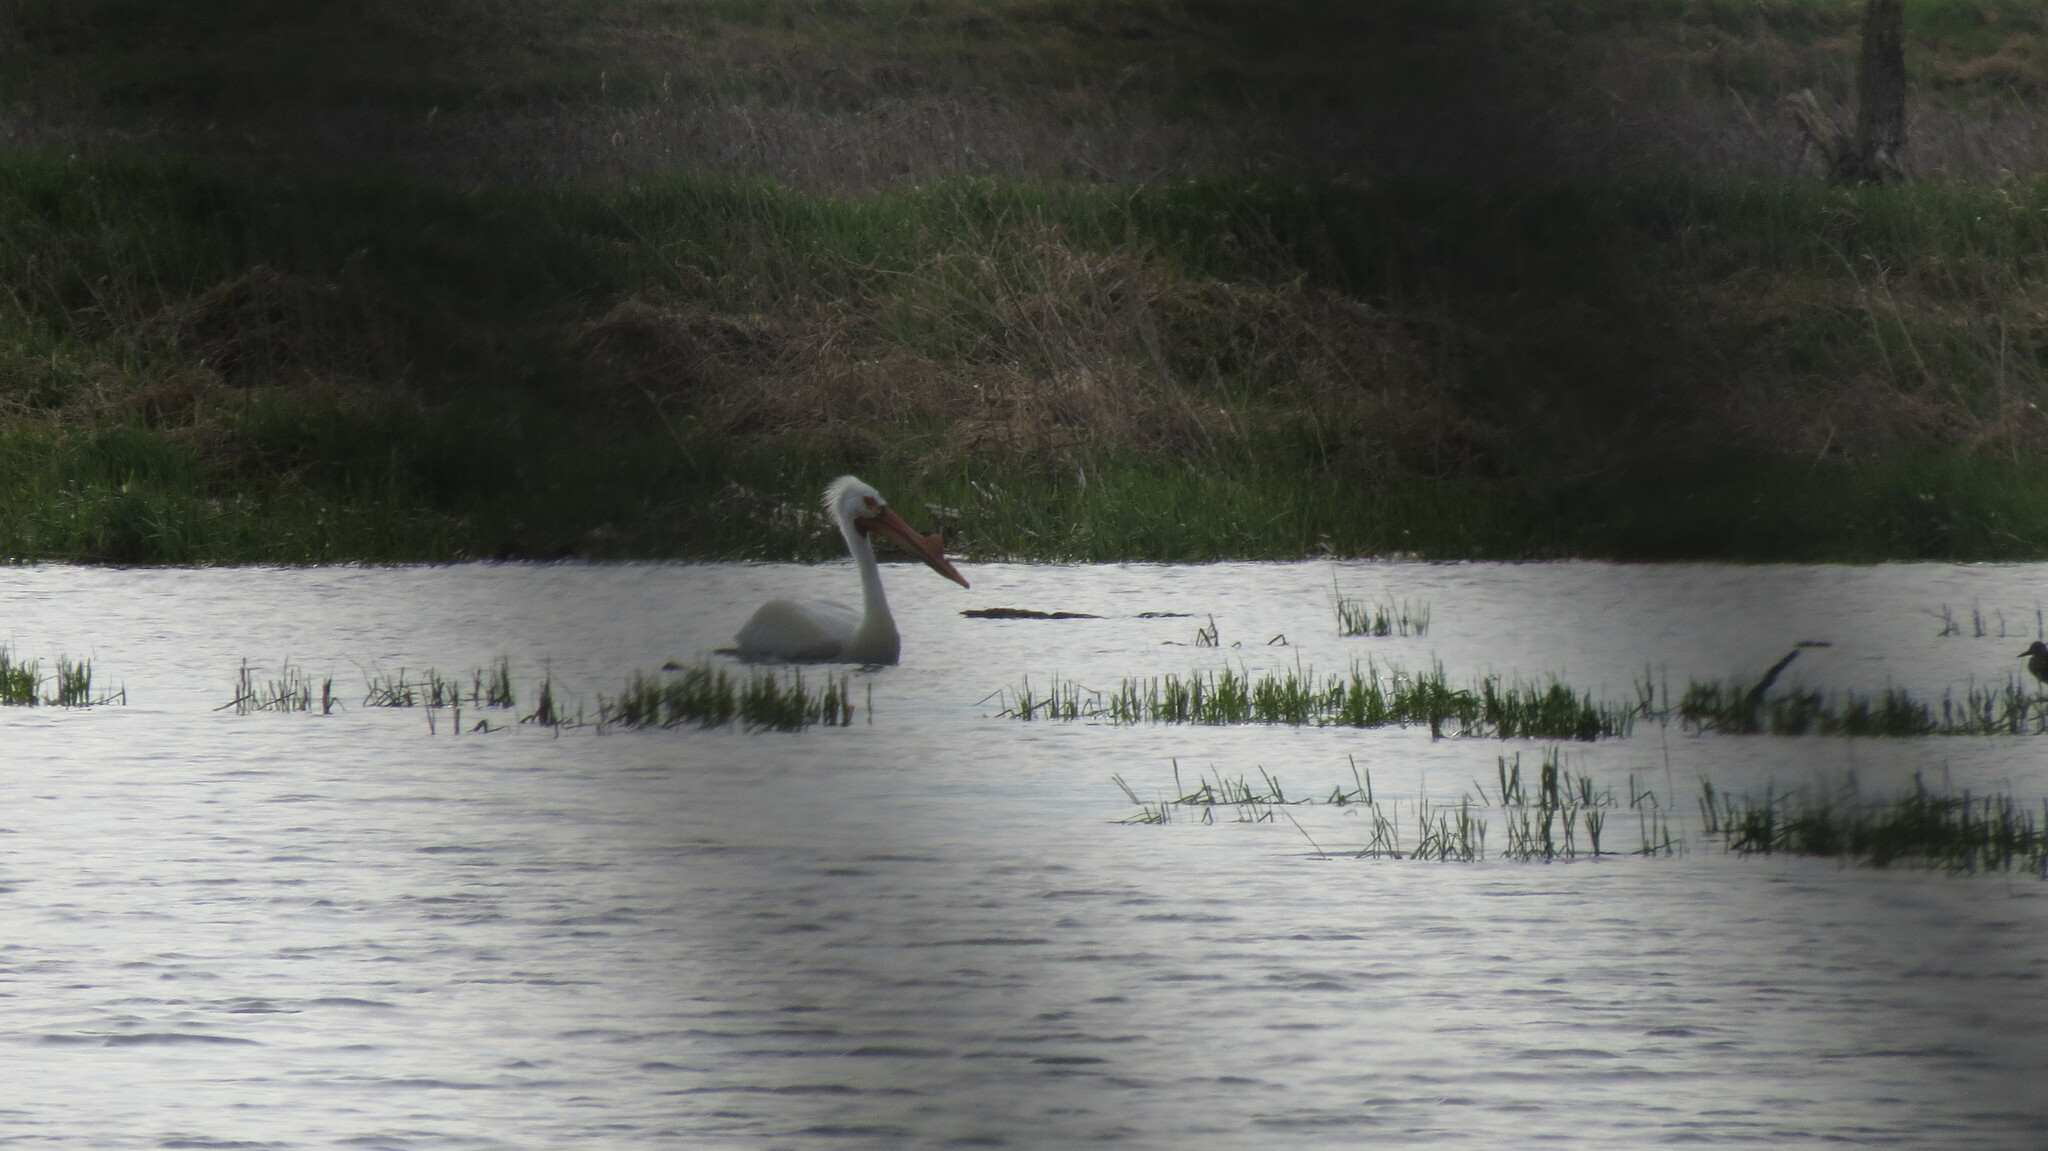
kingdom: Animalia
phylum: Chordata
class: Aves
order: Pelecaniformes
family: Pelecanidae
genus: Pelecanus
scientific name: Pelecanus erythrorhynchos
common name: American white pelican
